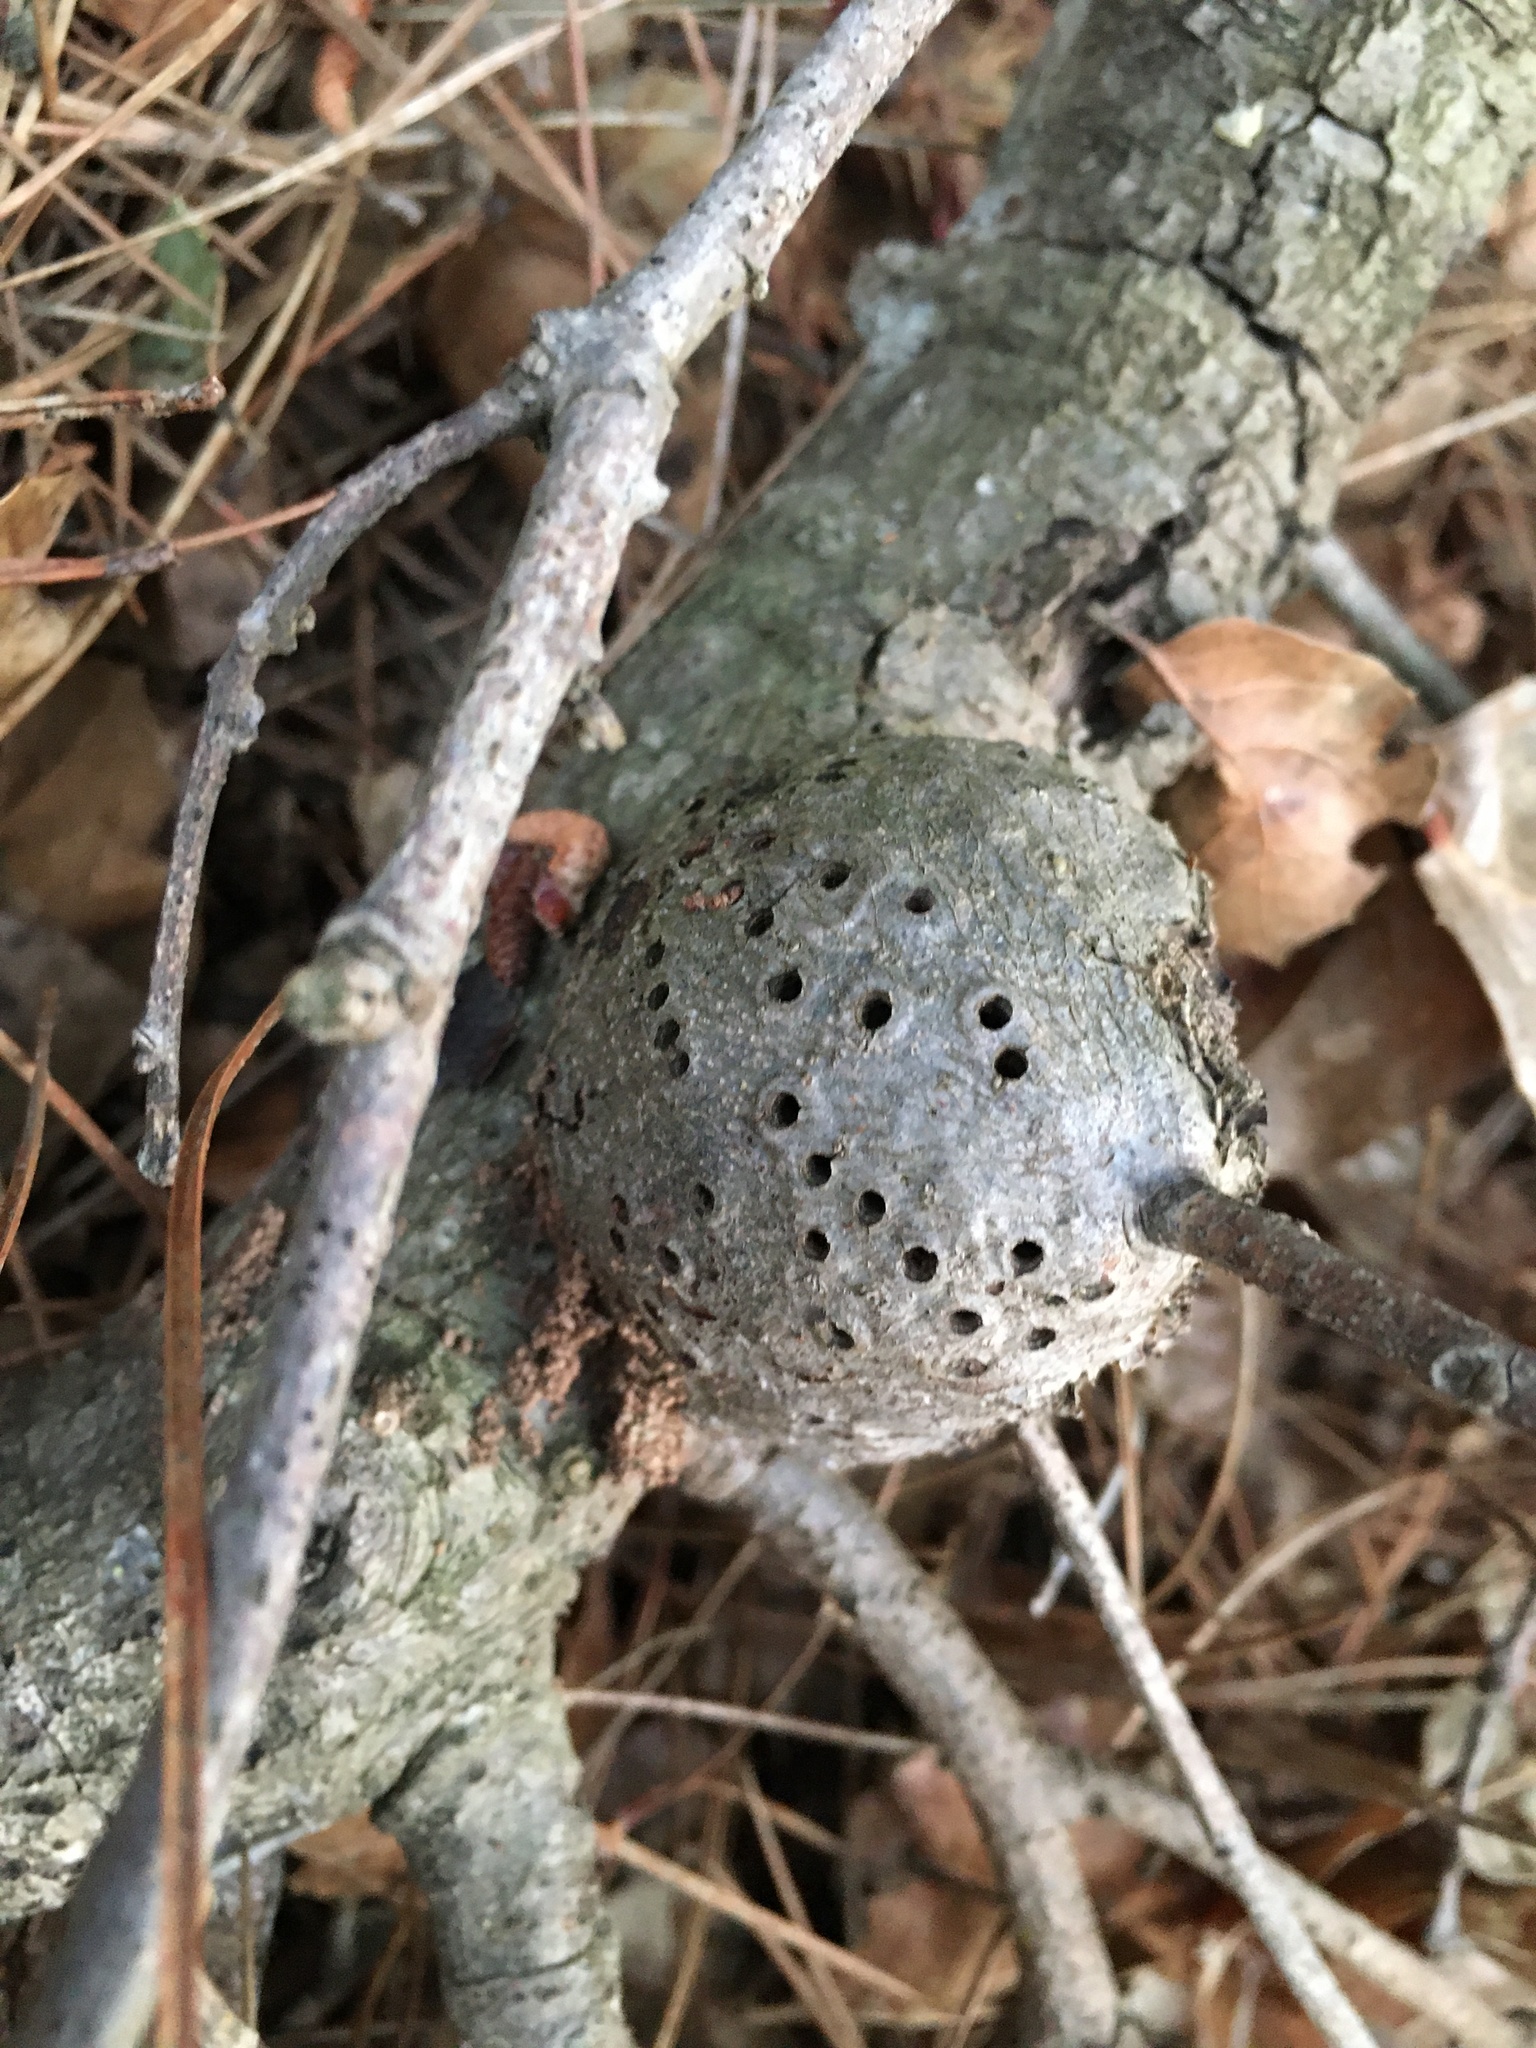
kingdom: Animalia
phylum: Arthropoda
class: Insecta
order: Hymenoptera
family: Cynipidae
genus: Callirhytis
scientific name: Callirhytis
